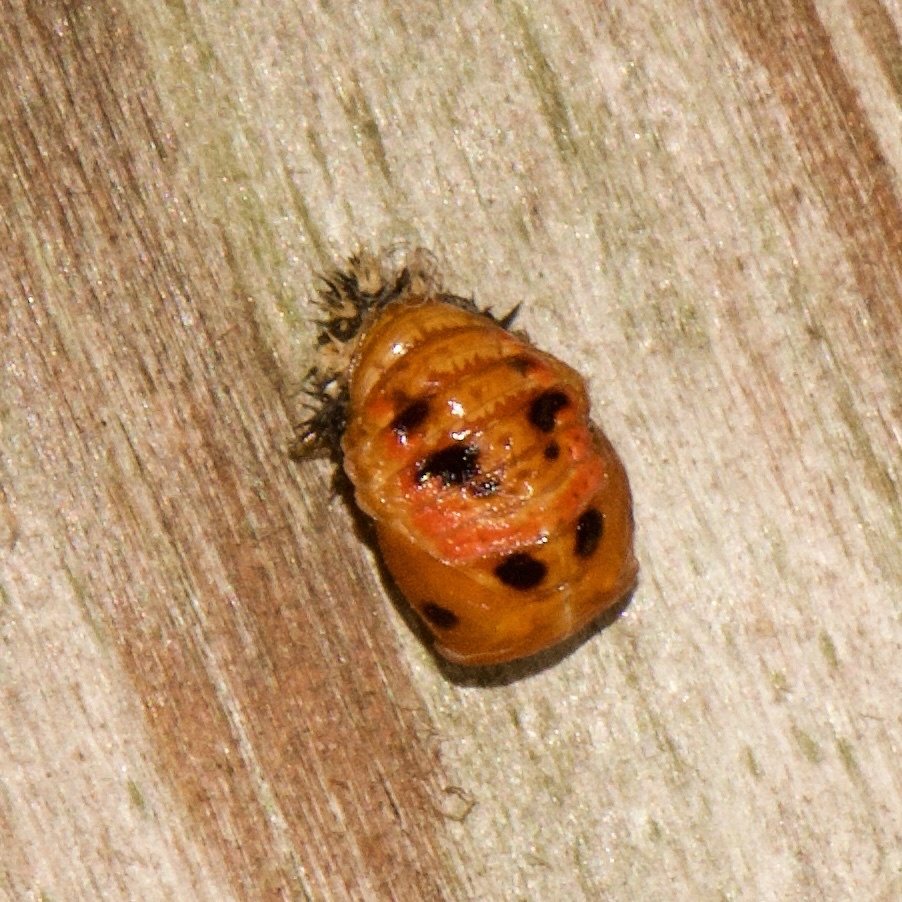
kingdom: Animalia
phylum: Arthropoda
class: Insecta
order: Coleoptera
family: Coccinellidae
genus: Harmonia
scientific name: Harmonia axyridis
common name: Harlequin ladybird
